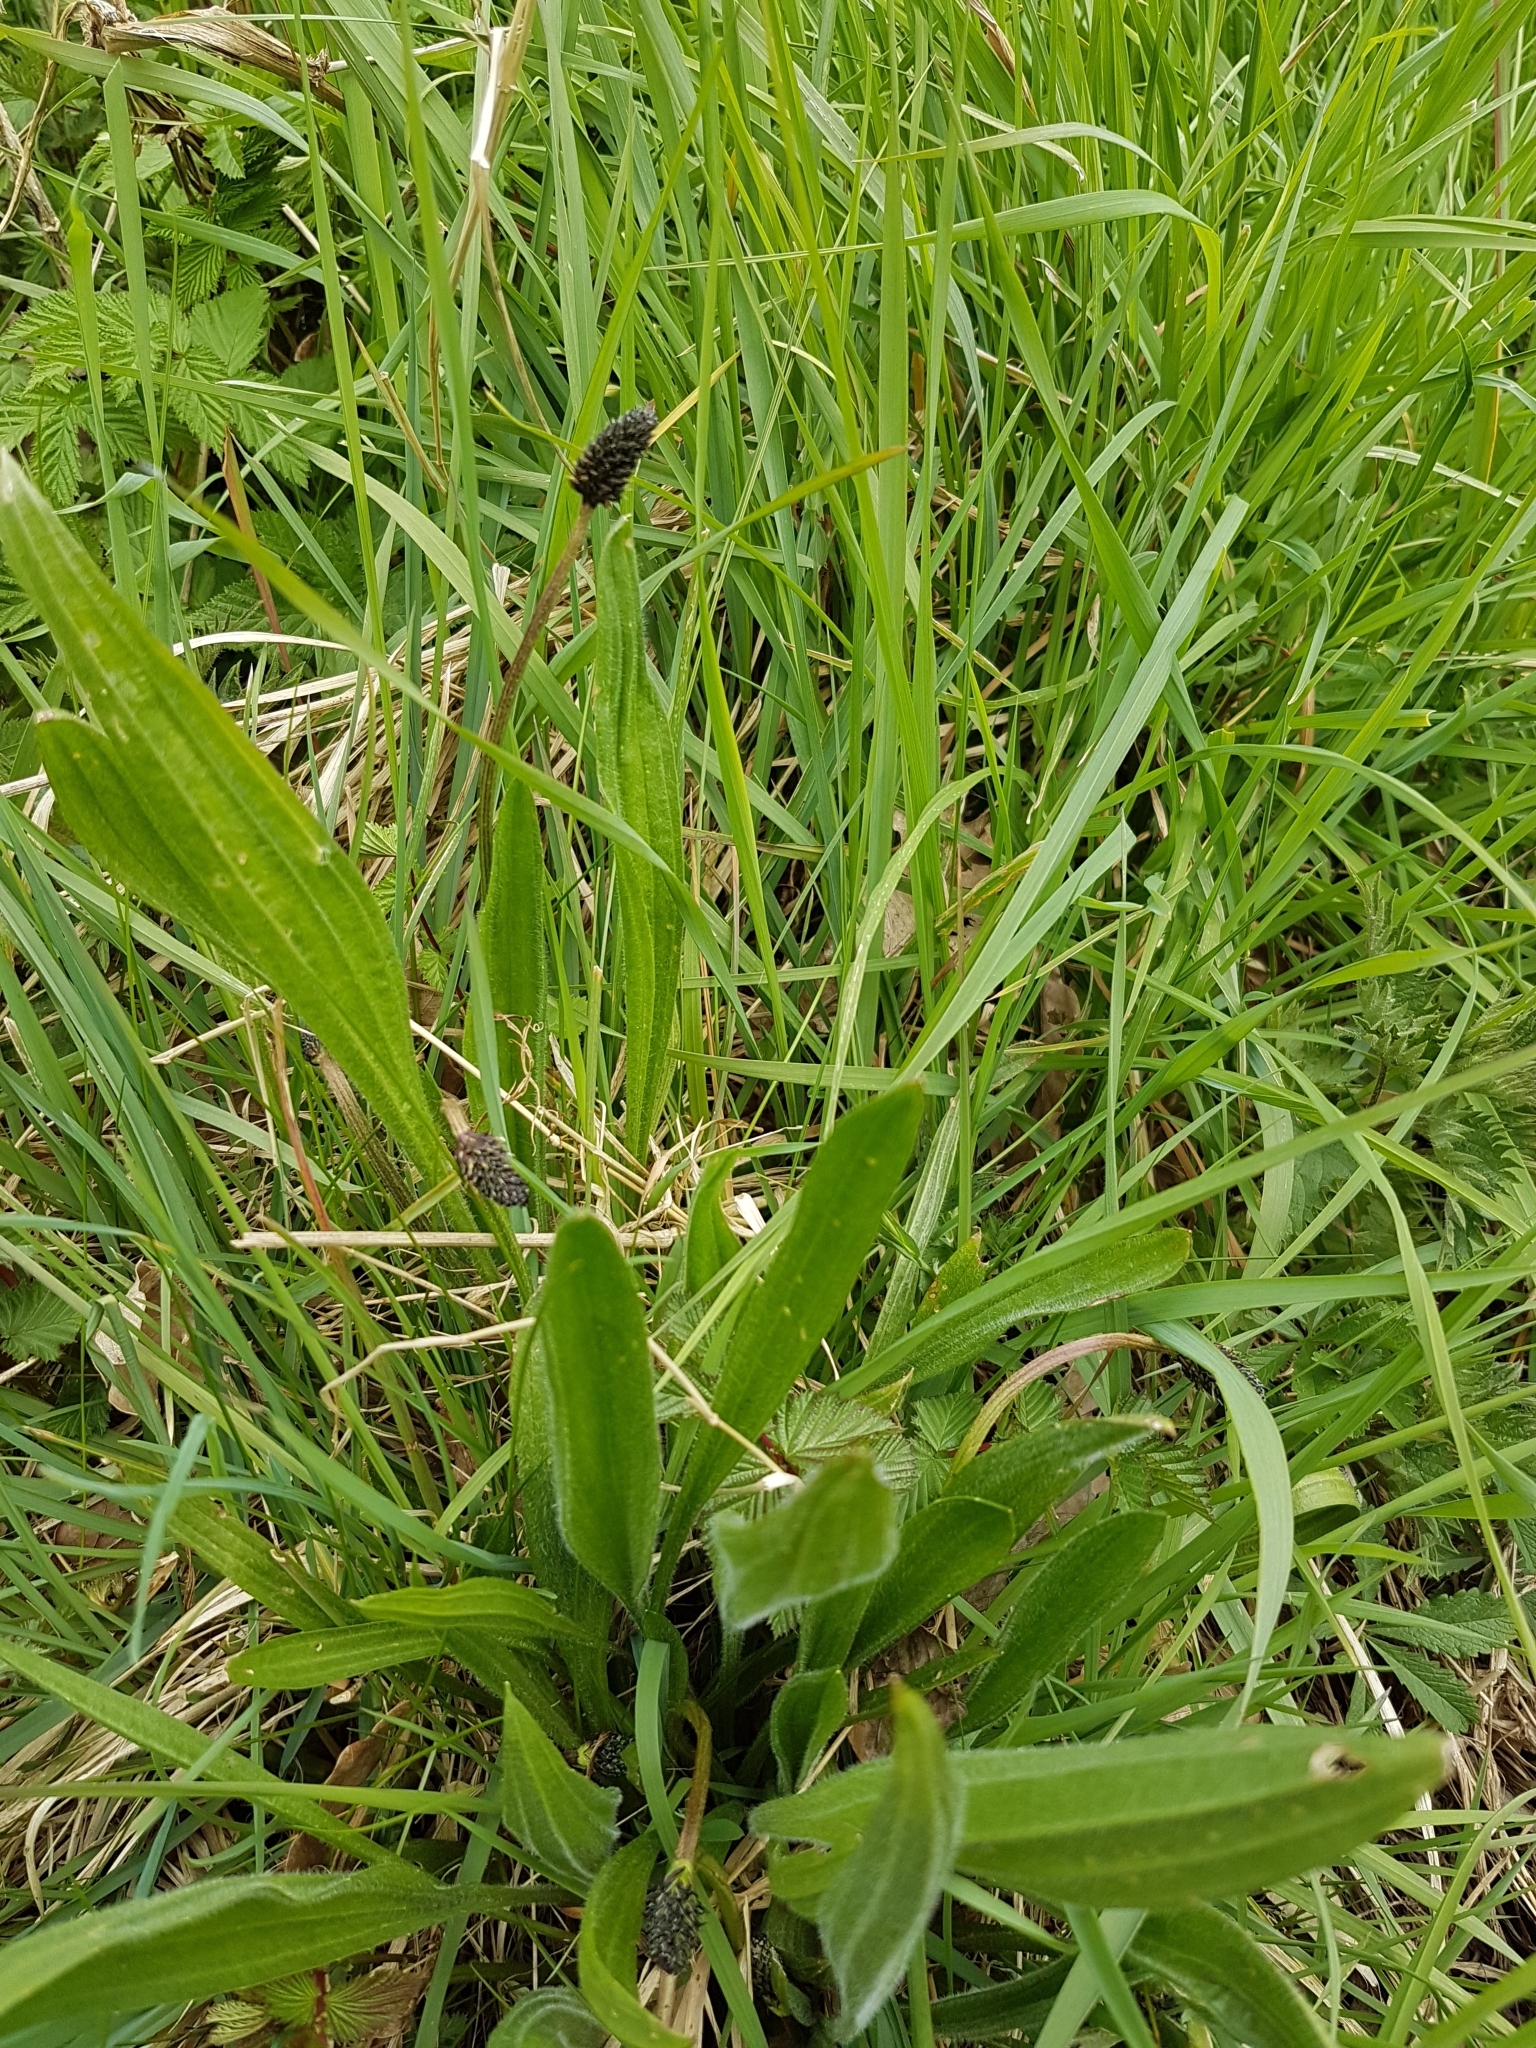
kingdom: Plantae
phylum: Tracheophyta
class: Magnoliopsida
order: Lamiales
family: Plantaginaceae
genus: Plantago
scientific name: Plantago lanceolata
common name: Ribwort plantain
